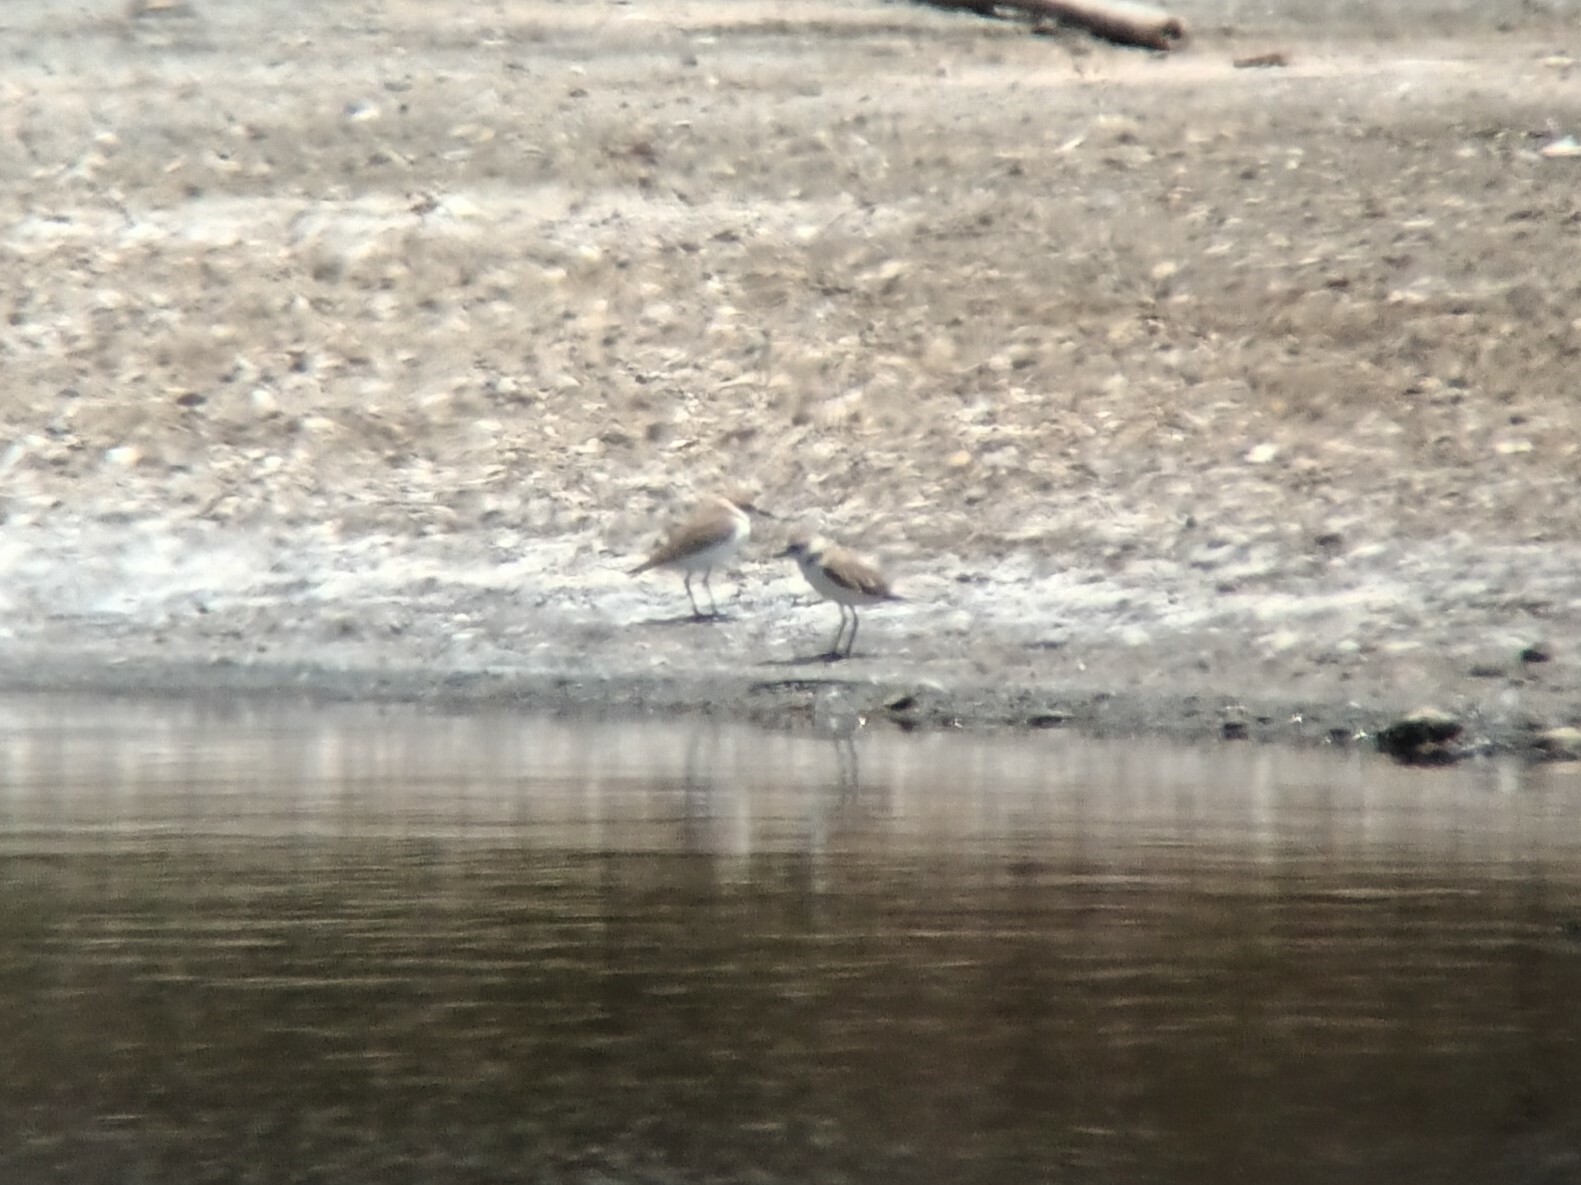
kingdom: Animalia
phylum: Chordata
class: Aves
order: Charadriiformes
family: Charadriidae
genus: Charadrius
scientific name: Charadrius alexandrinus
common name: Kentish plover
